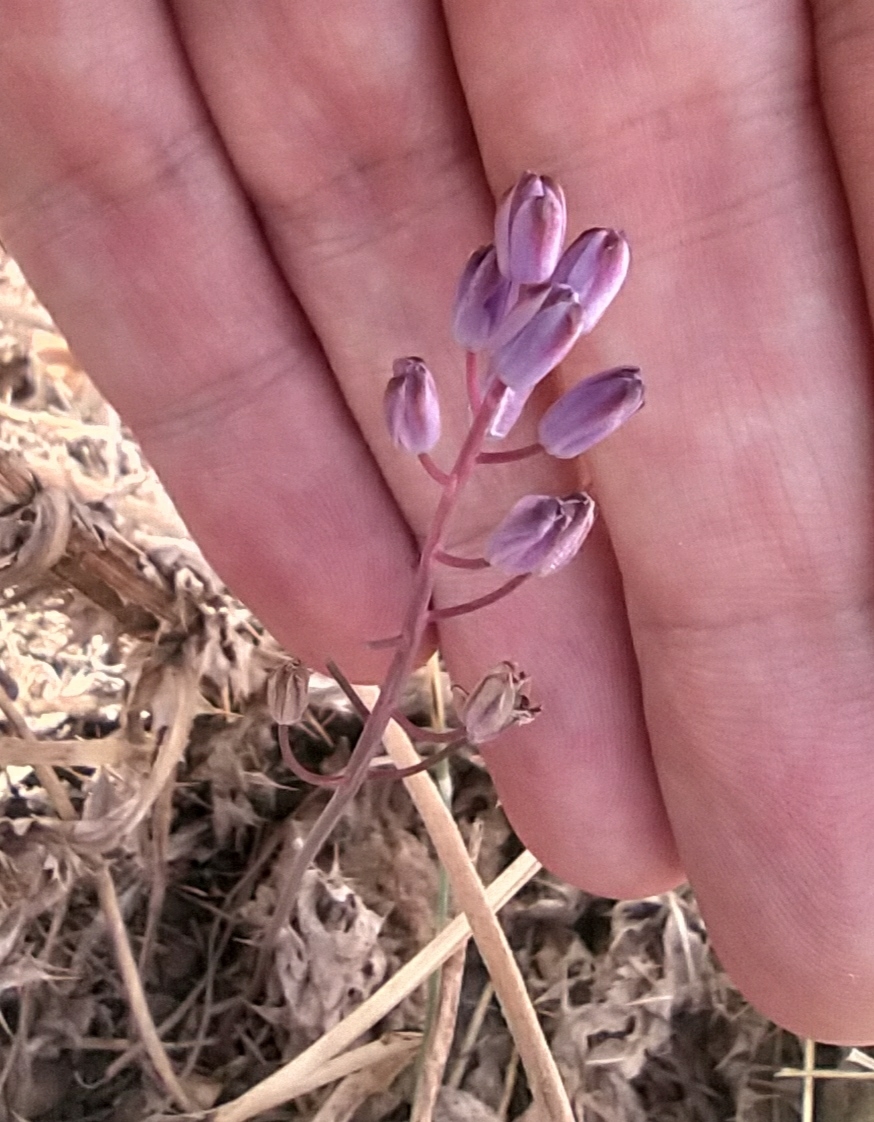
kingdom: Plantae
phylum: Tracheophyta
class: Liliopsida
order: Asparagales
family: Asparagaceae
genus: Prospero
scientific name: Prospero autumnale
